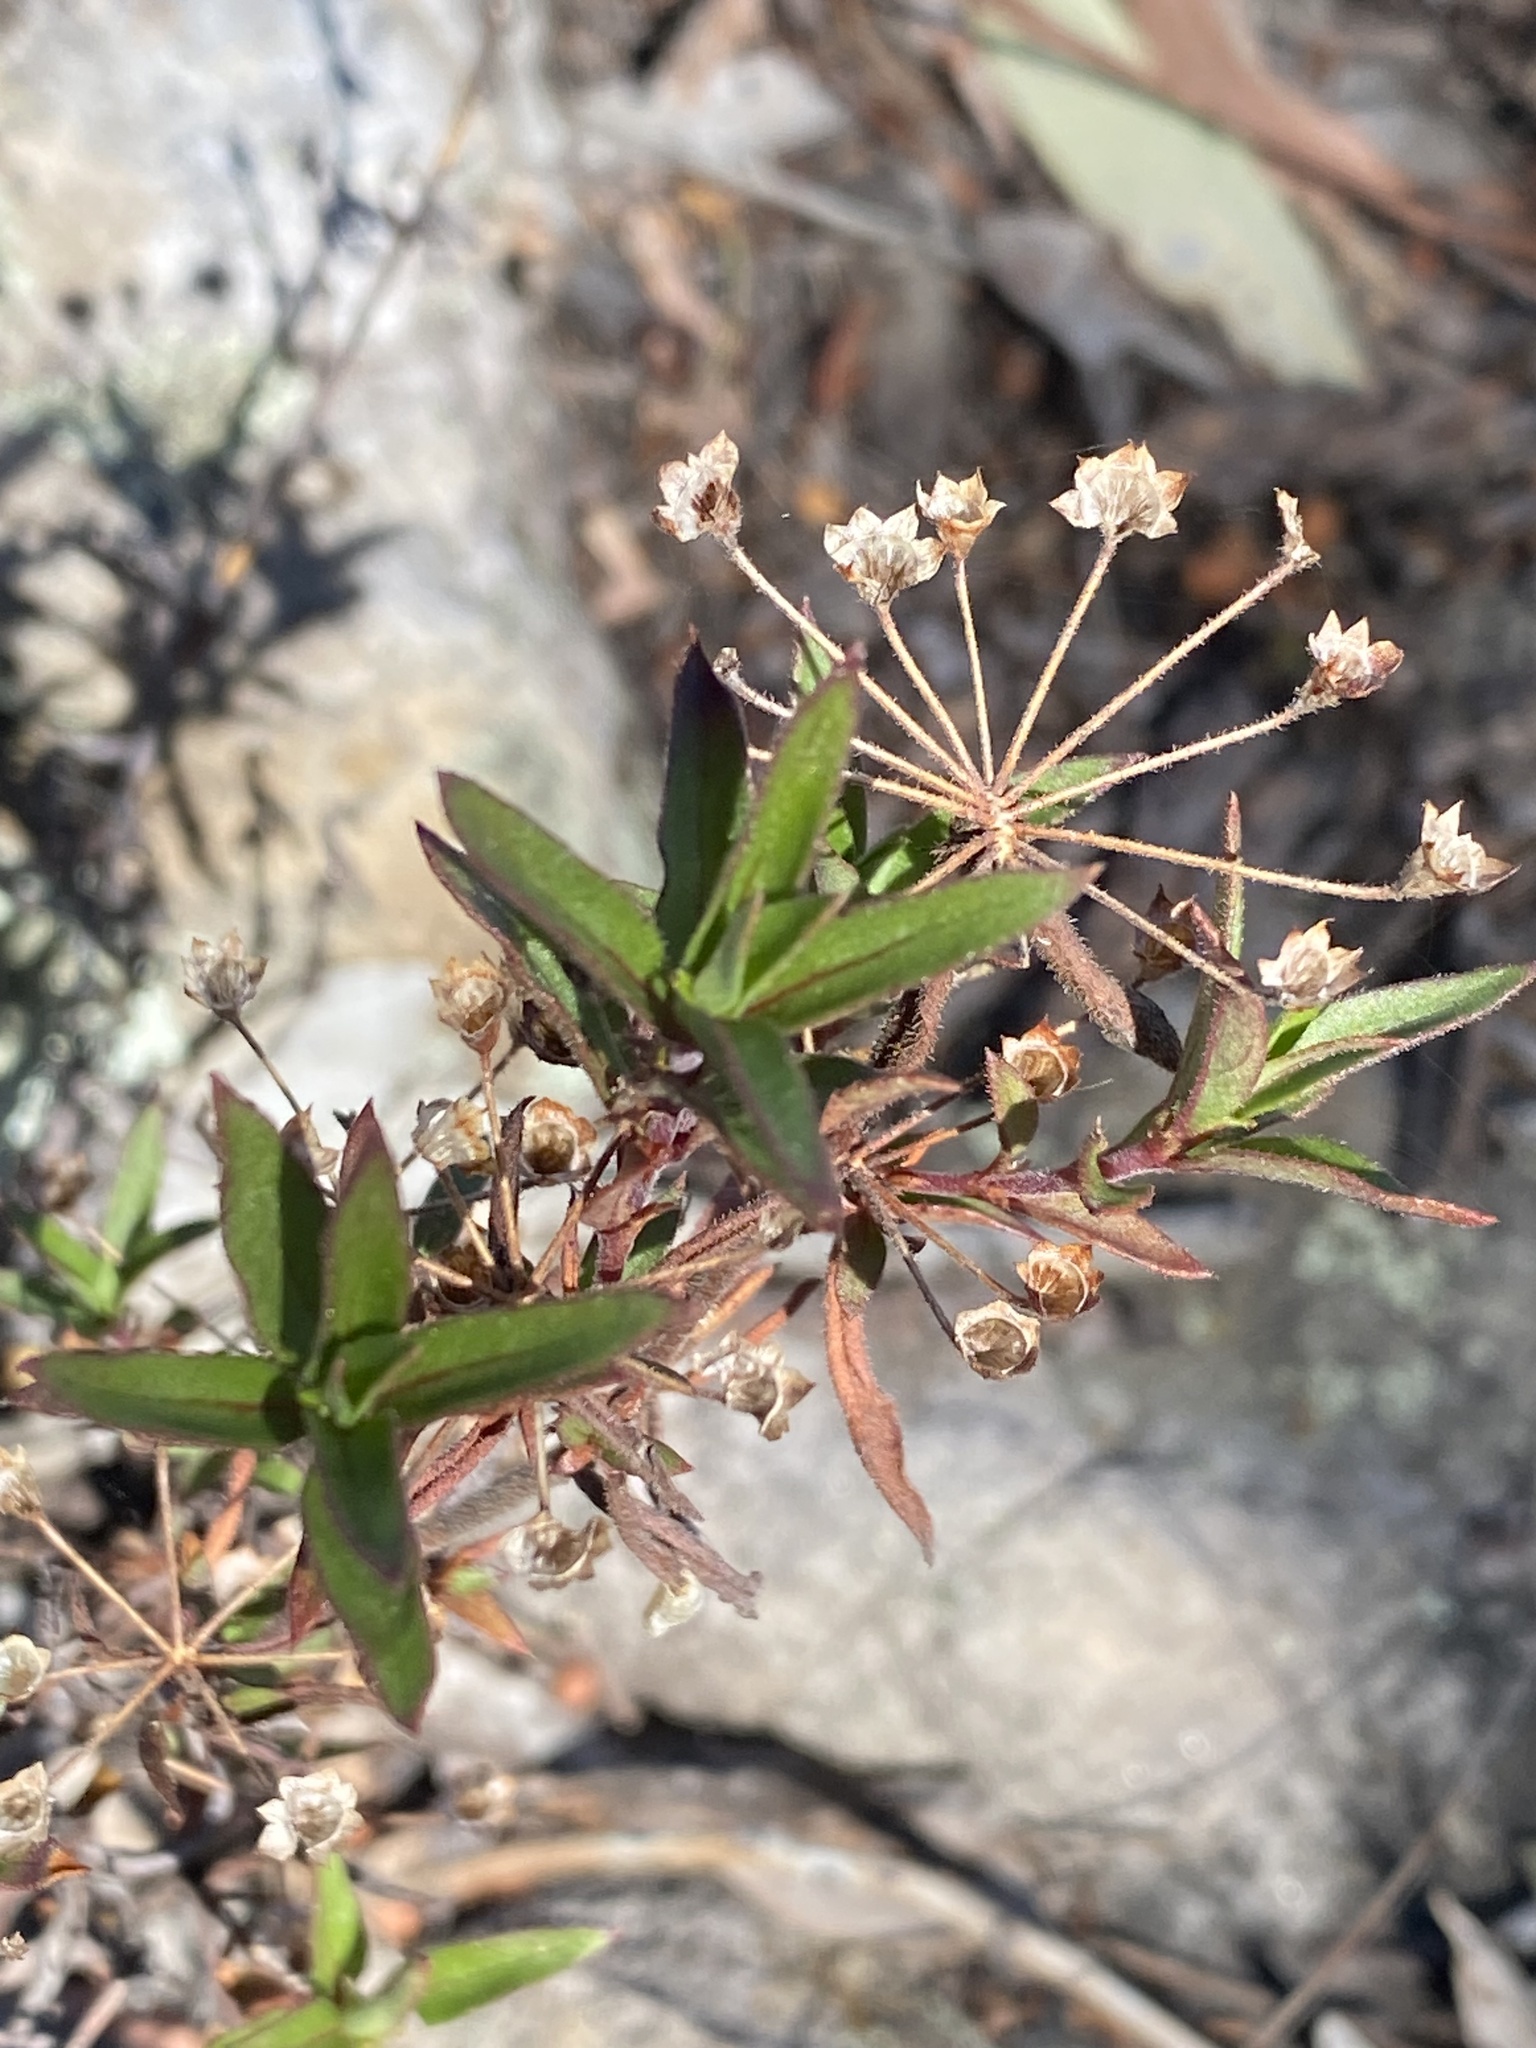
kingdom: Plantae
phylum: Tracheophyta
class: Magnoliopsida
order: Gentianales
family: Rubiaceae
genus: Pomax
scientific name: Pomax umbellata
